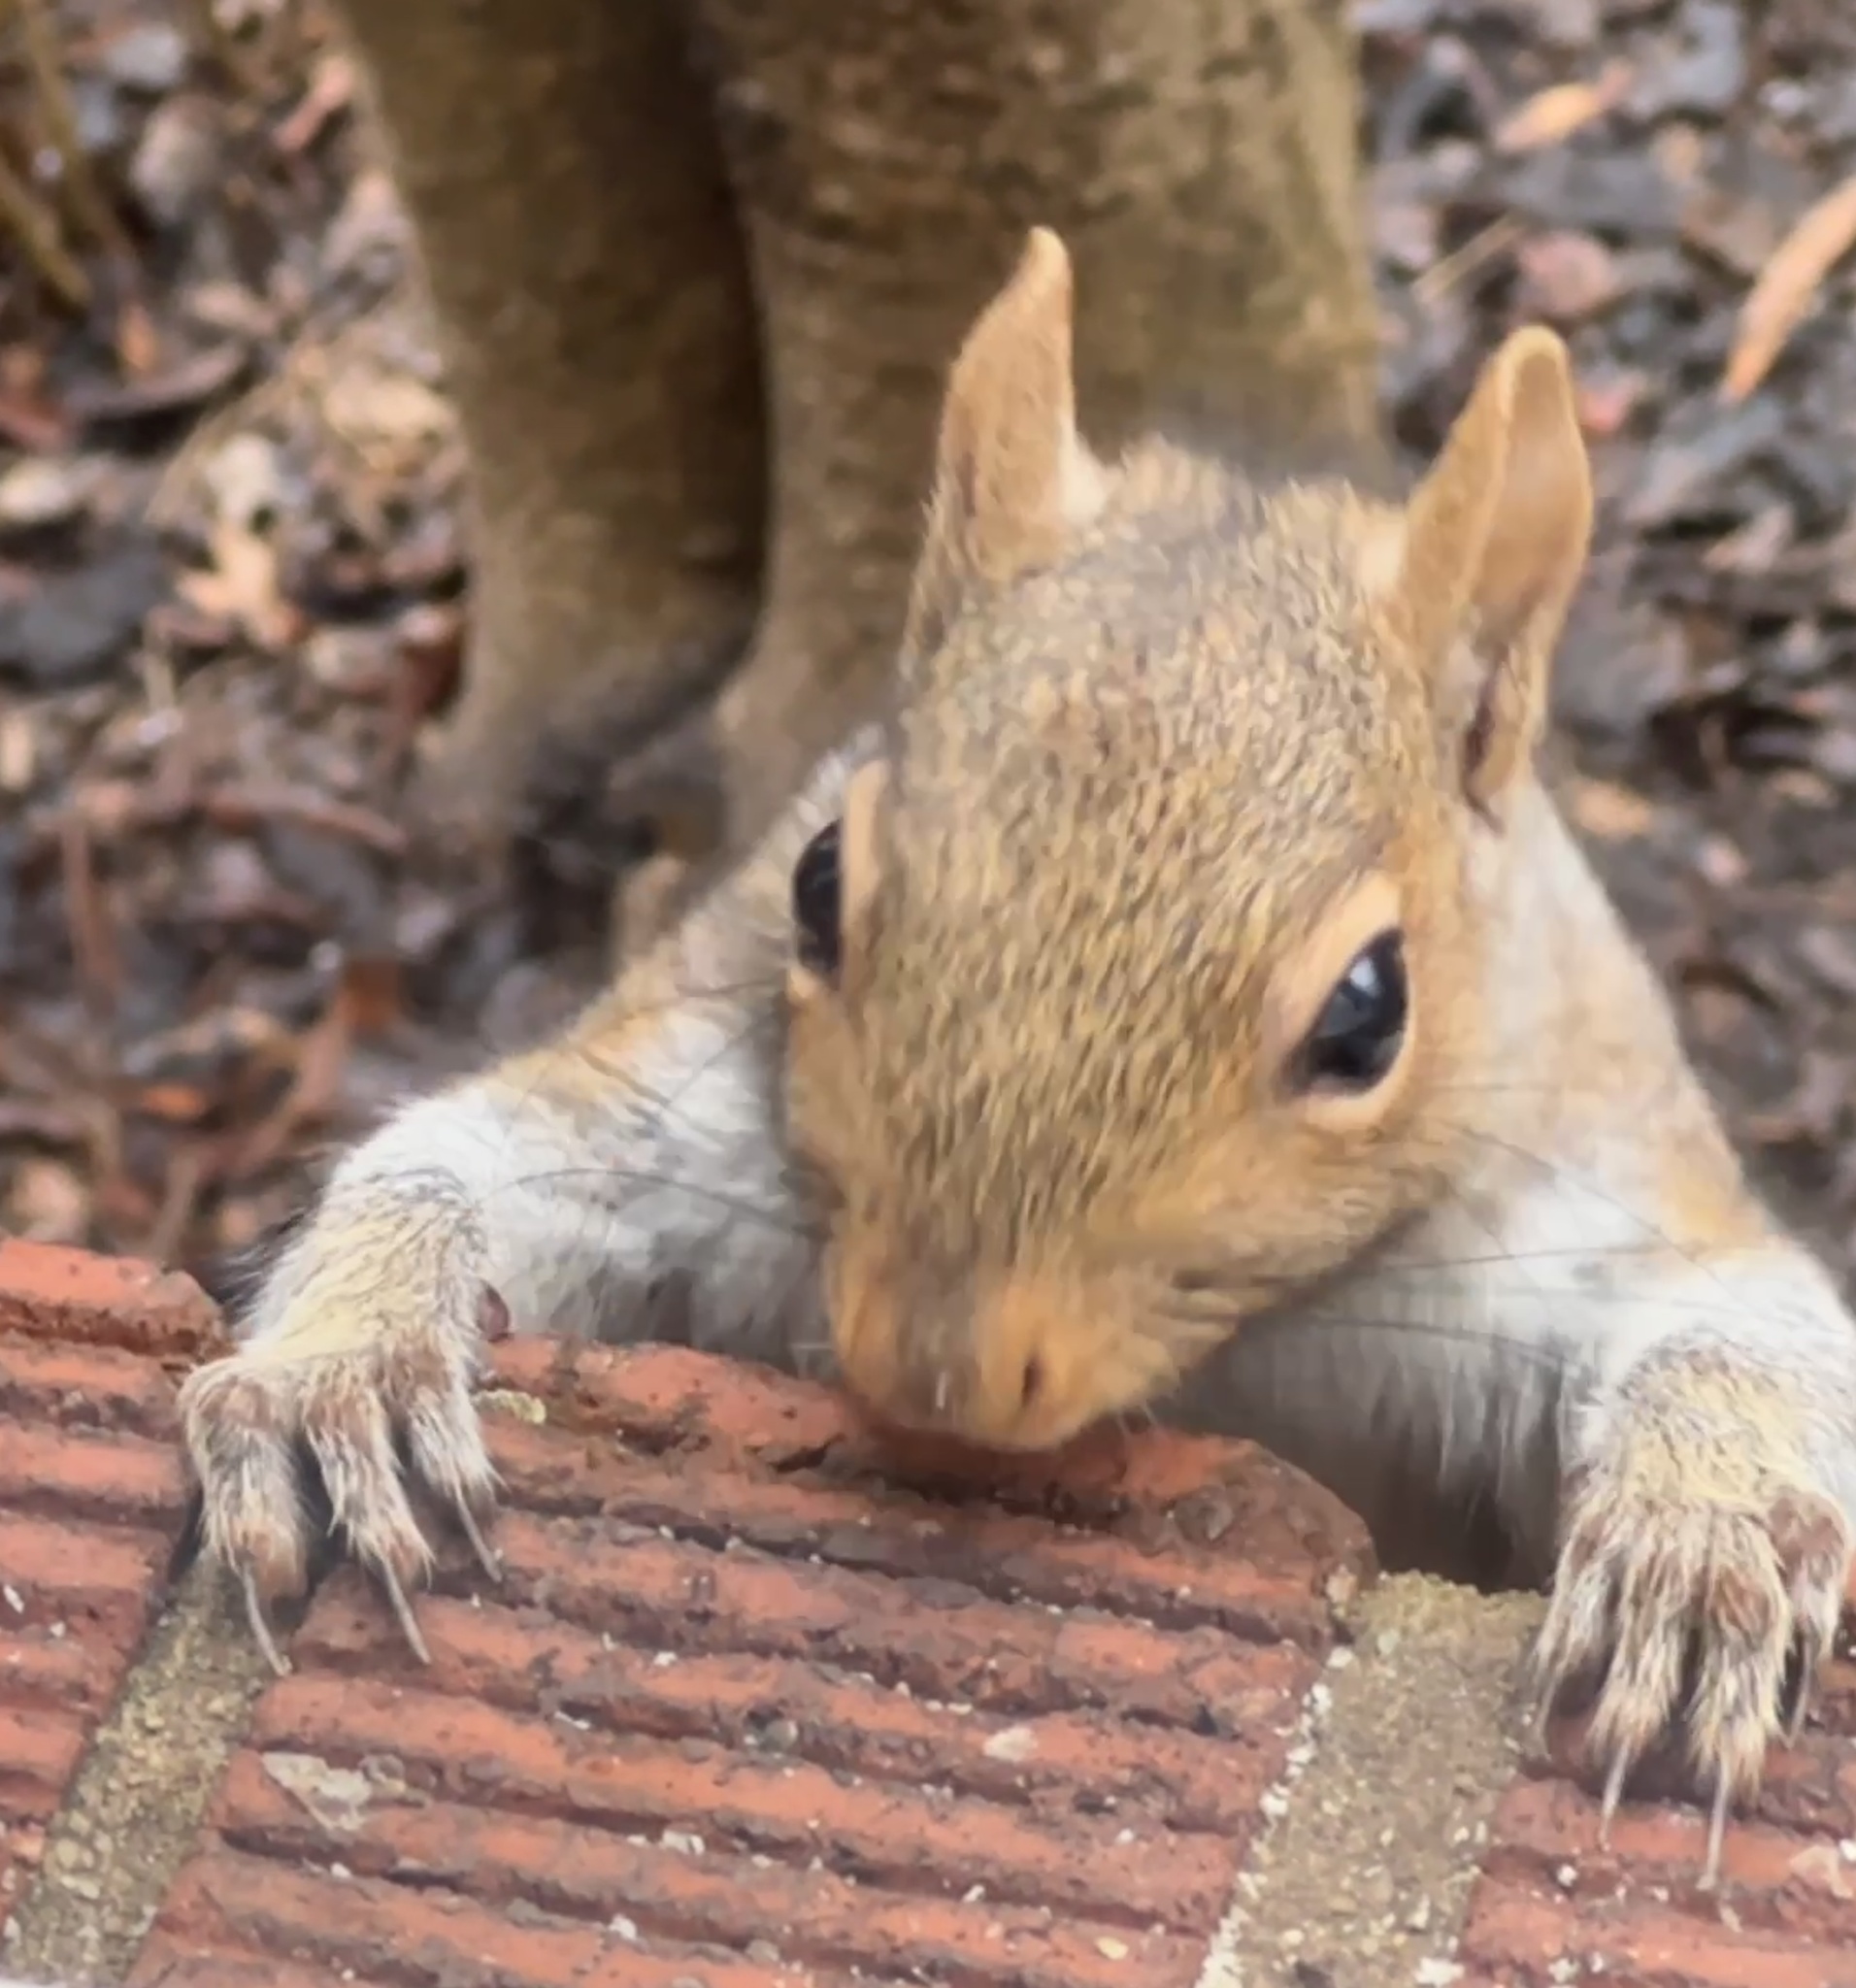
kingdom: Animalia
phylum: Chordata
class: Mammalia
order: Rodentia
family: Sciuridae
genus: Sciurus
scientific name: Sciurus carolinensis
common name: Eastern gray squirrel
